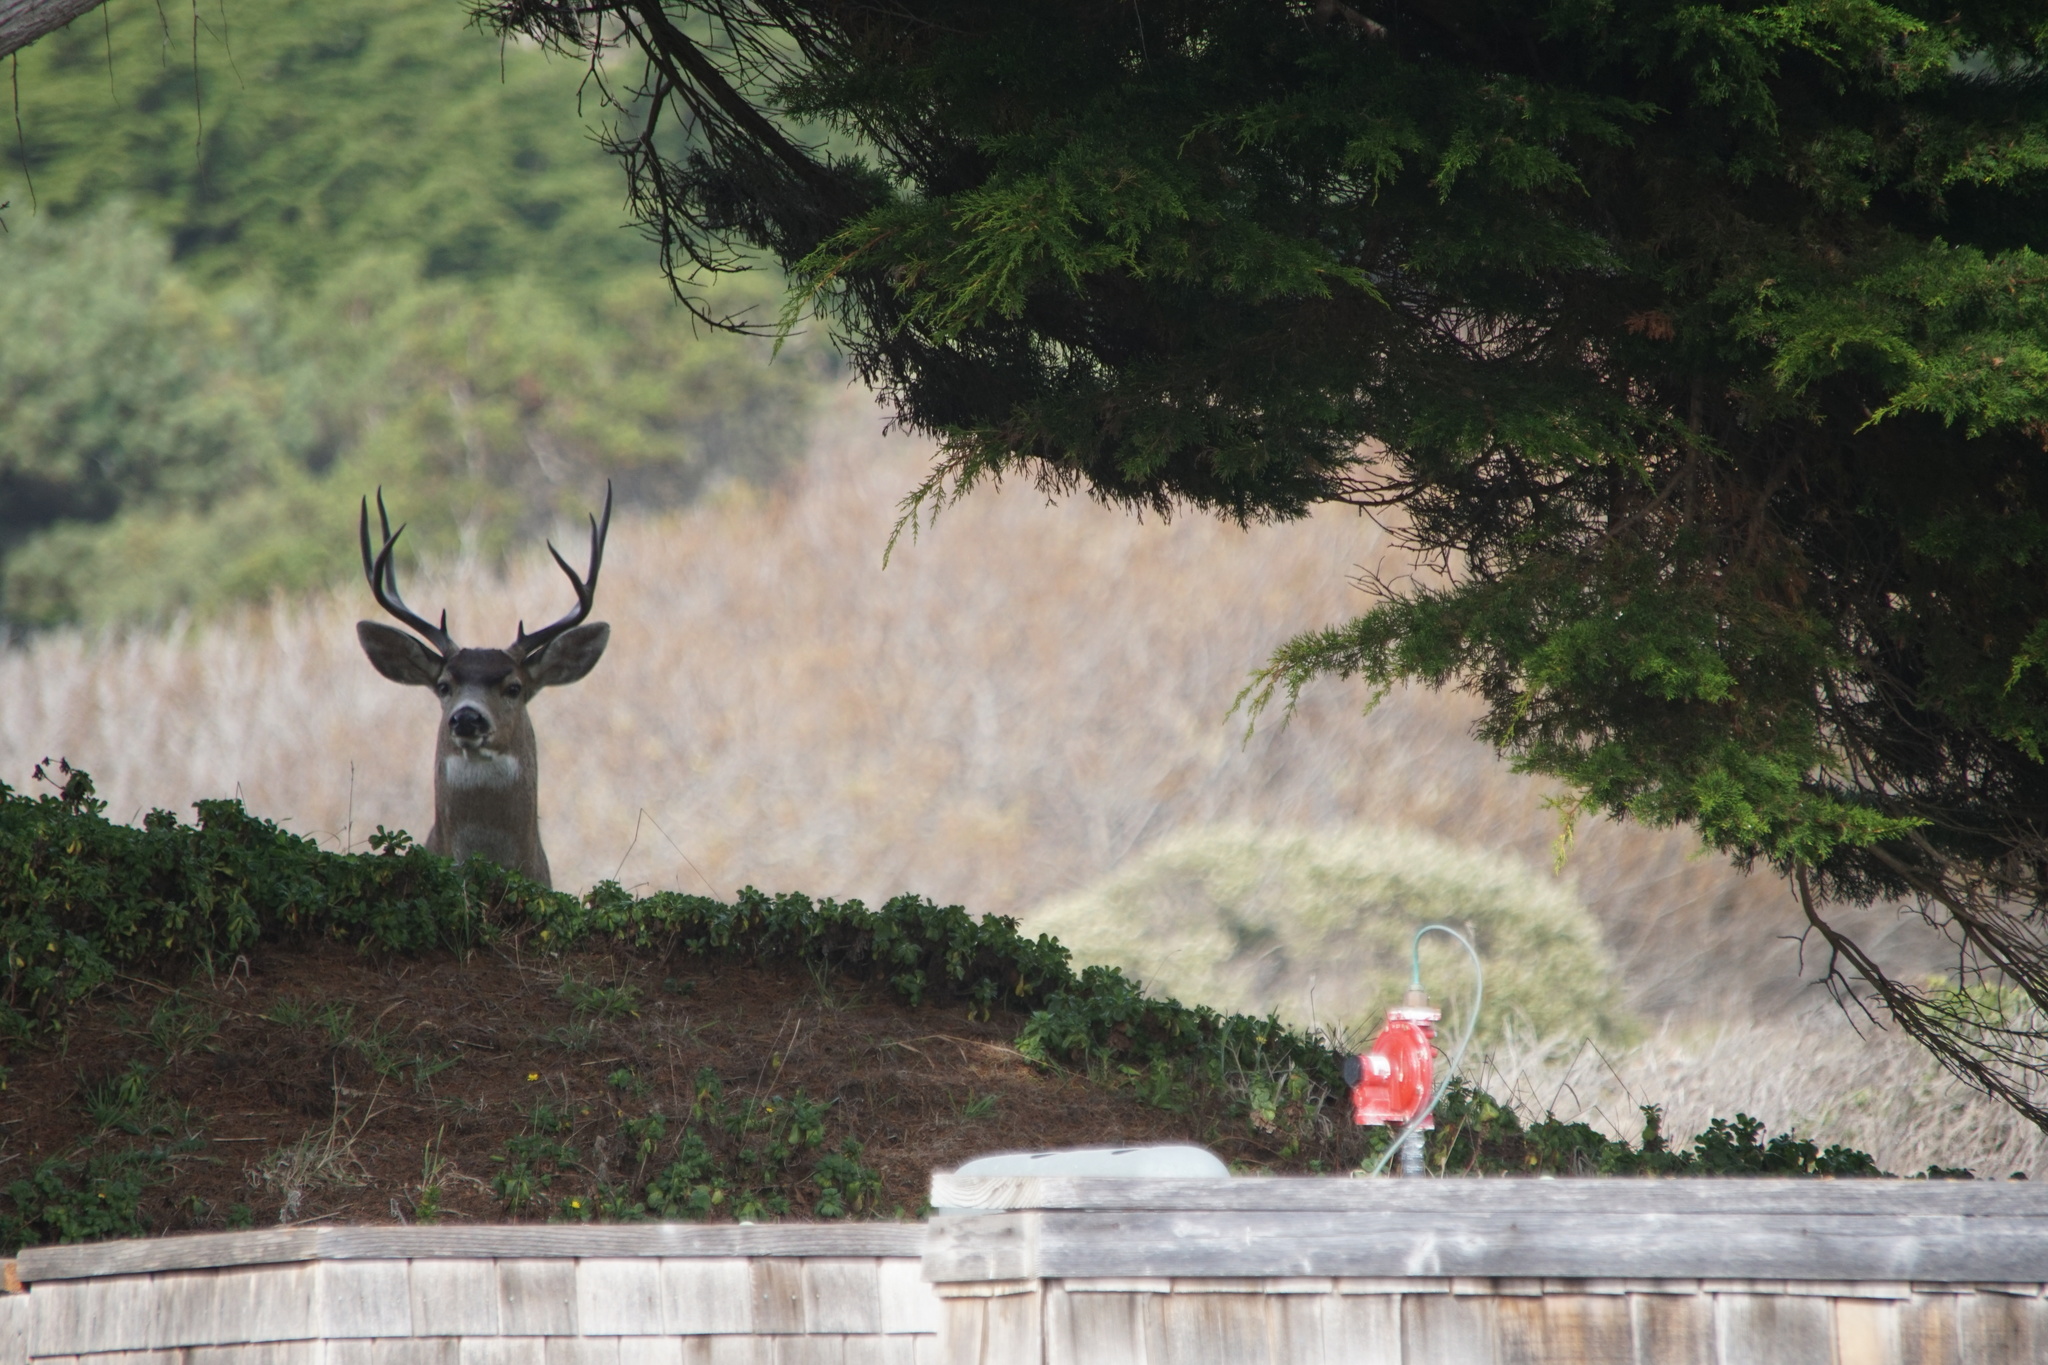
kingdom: Animalia
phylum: Chordata
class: Mammalia
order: Artiodactyla
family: Cervidae
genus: Odocoileus
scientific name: Odocoileus hemionus
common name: Mule deer
